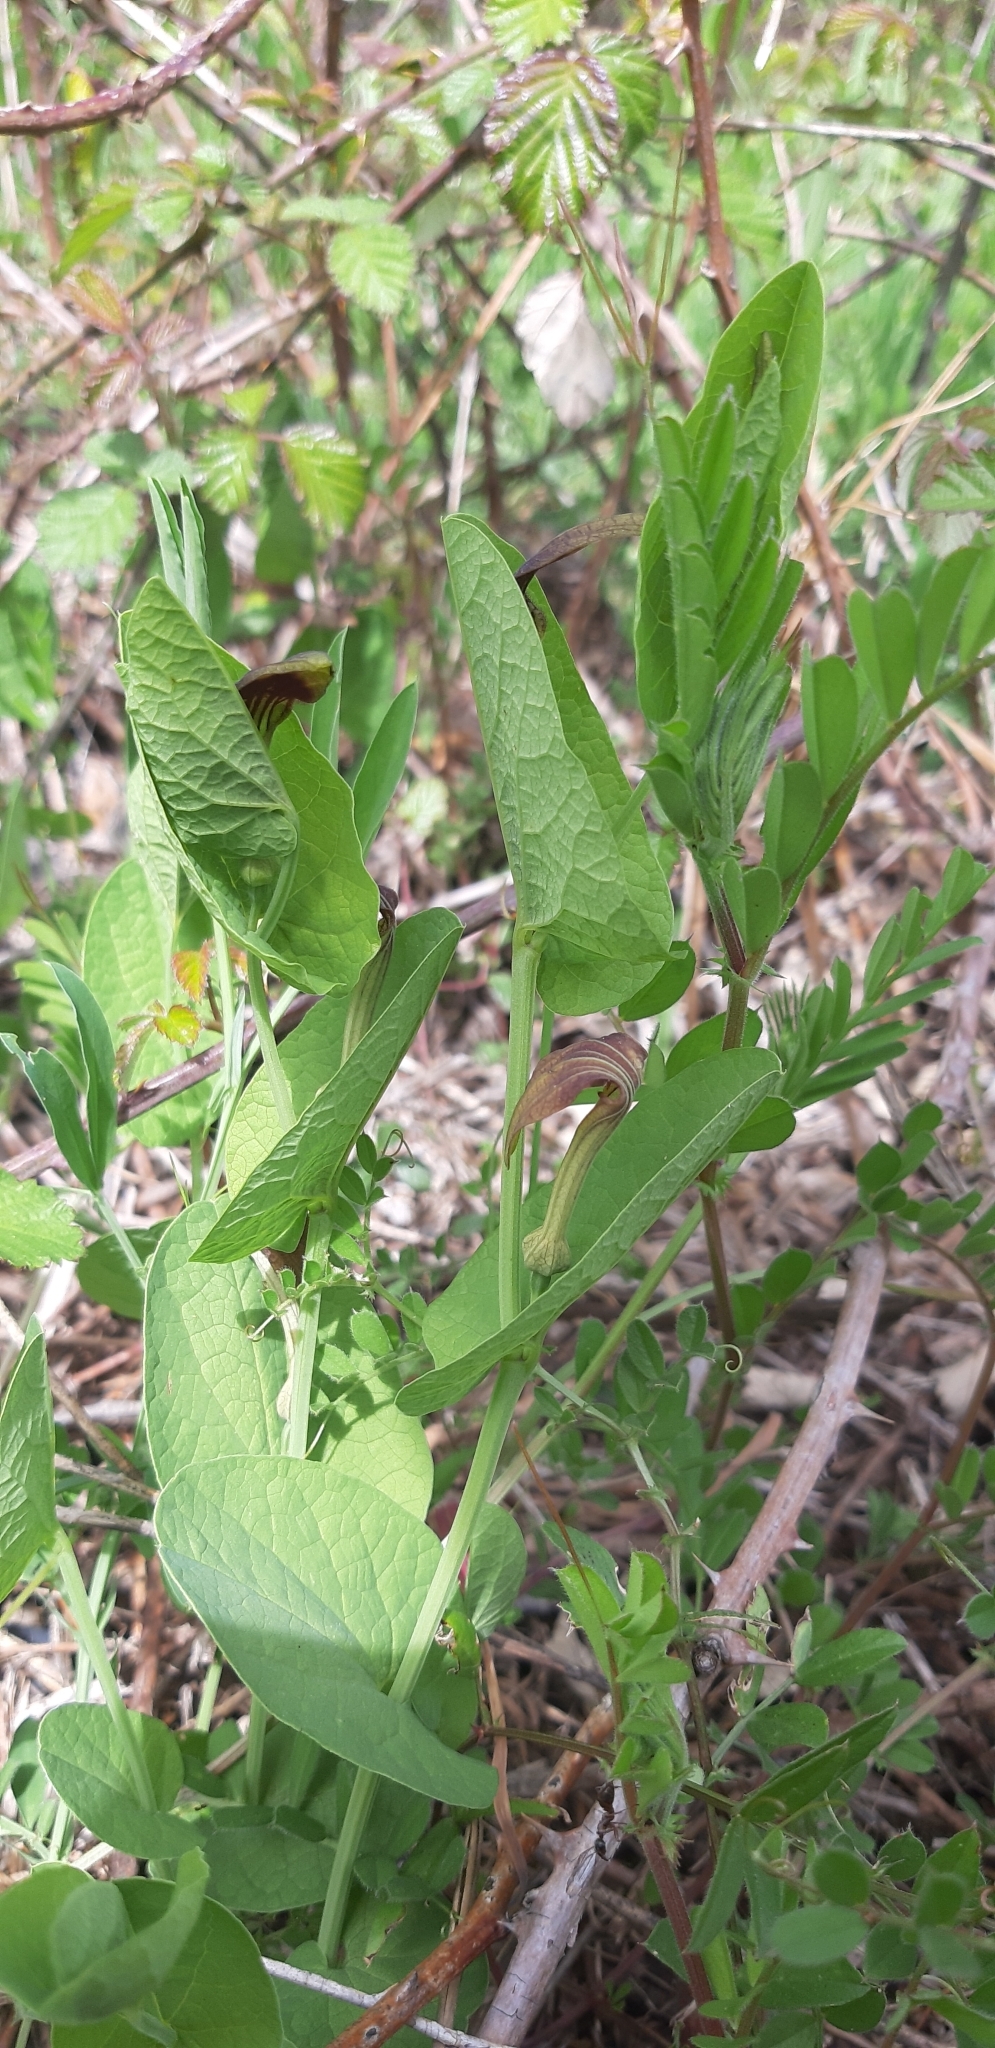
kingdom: Plantae
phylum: Tracheophyta
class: Magnoliopsida
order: Piperales
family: Aristolochiaceae
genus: Aristolochia
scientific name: Aristolochia rotunda
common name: Smearwort
